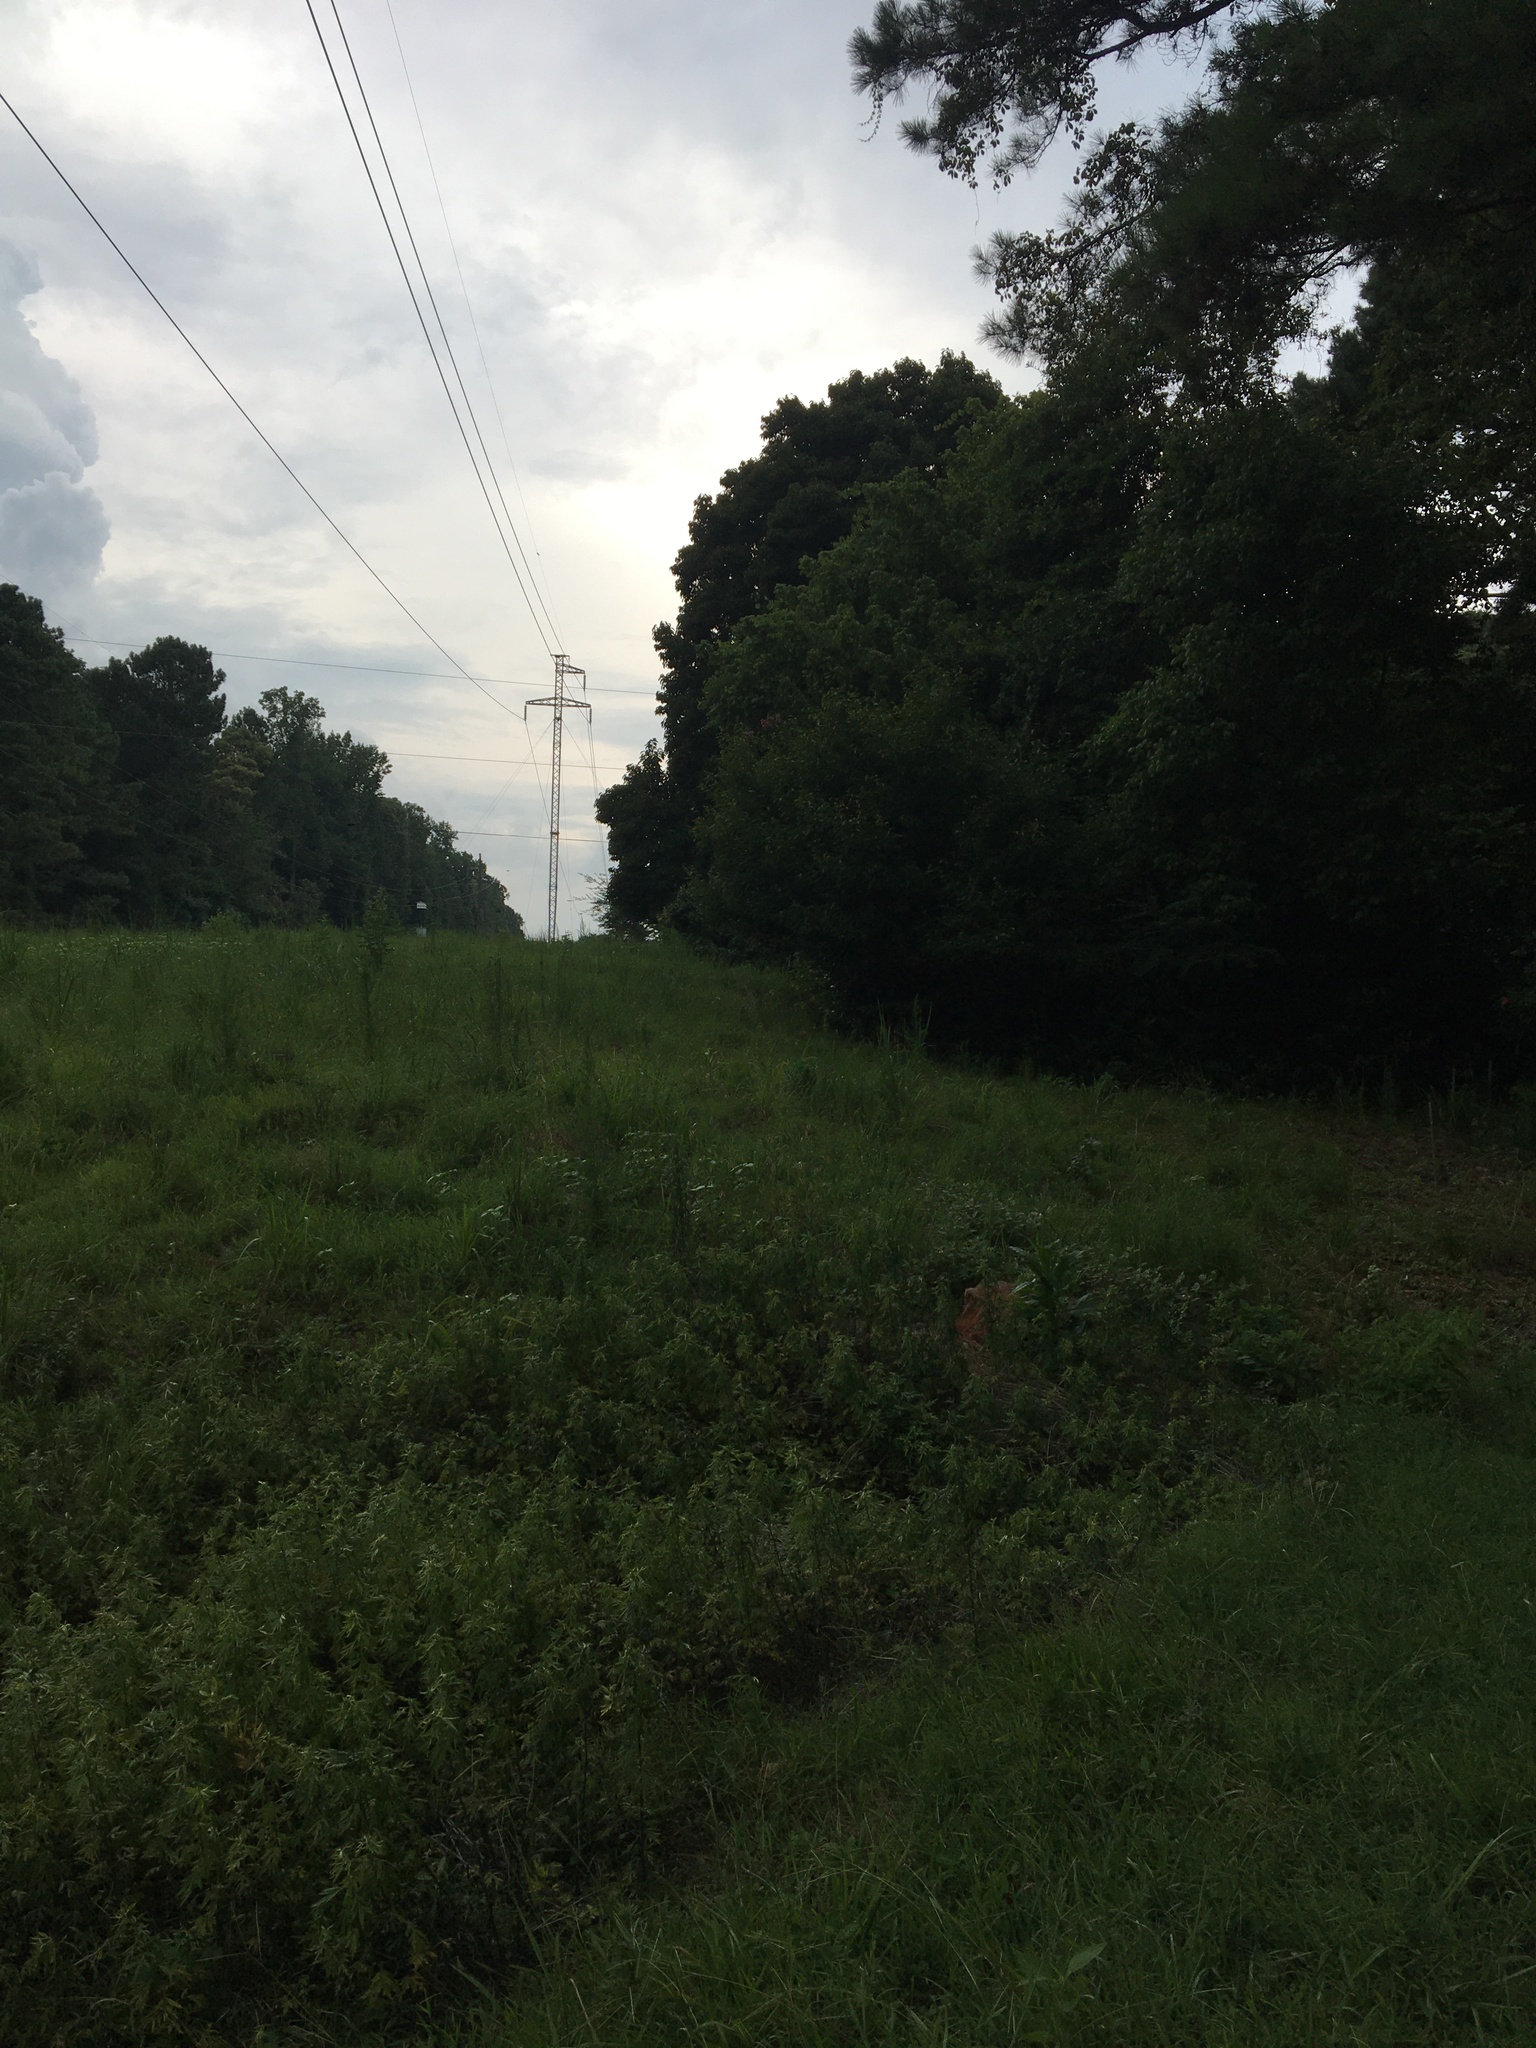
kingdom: Animalia
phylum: Chordata
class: Aves
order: Passeriformes
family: Passerellidae
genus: Pipilo
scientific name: Pipilo erythrophthalmus
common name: Eastern towhee
